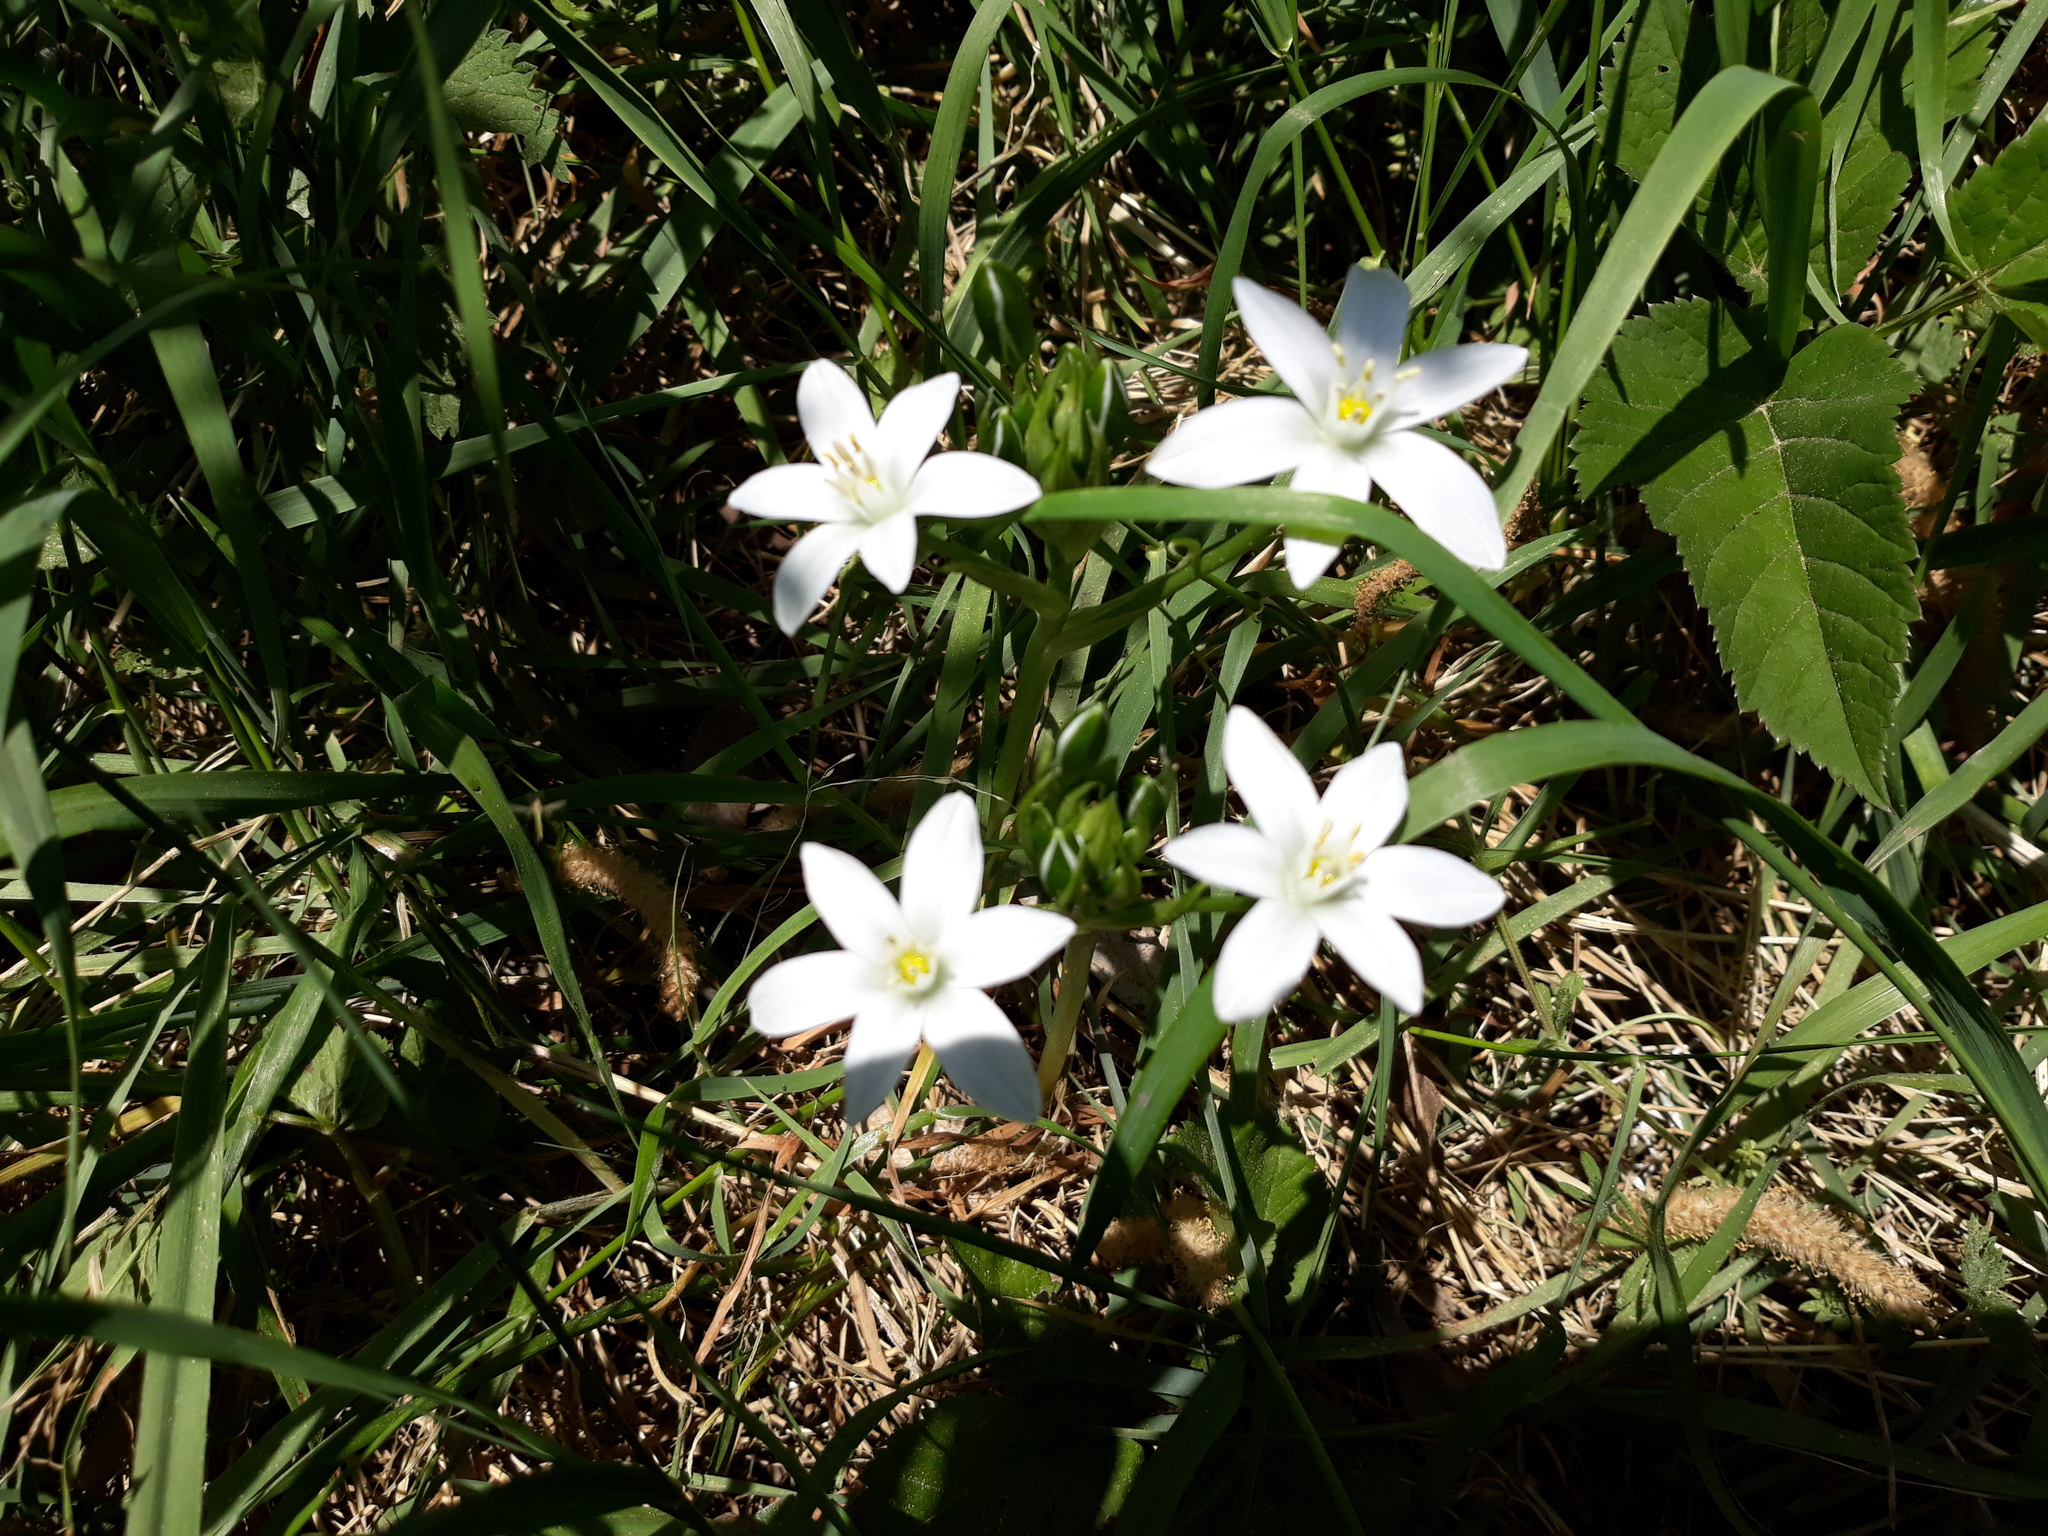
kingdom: Plantae
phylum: Tracheophyta
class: Liliopsida
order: Asparagales
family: Asparagaceae
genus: Ornithogalum
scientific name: Ornithogalum umbellatum
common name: Garden star-of-bethlehem
